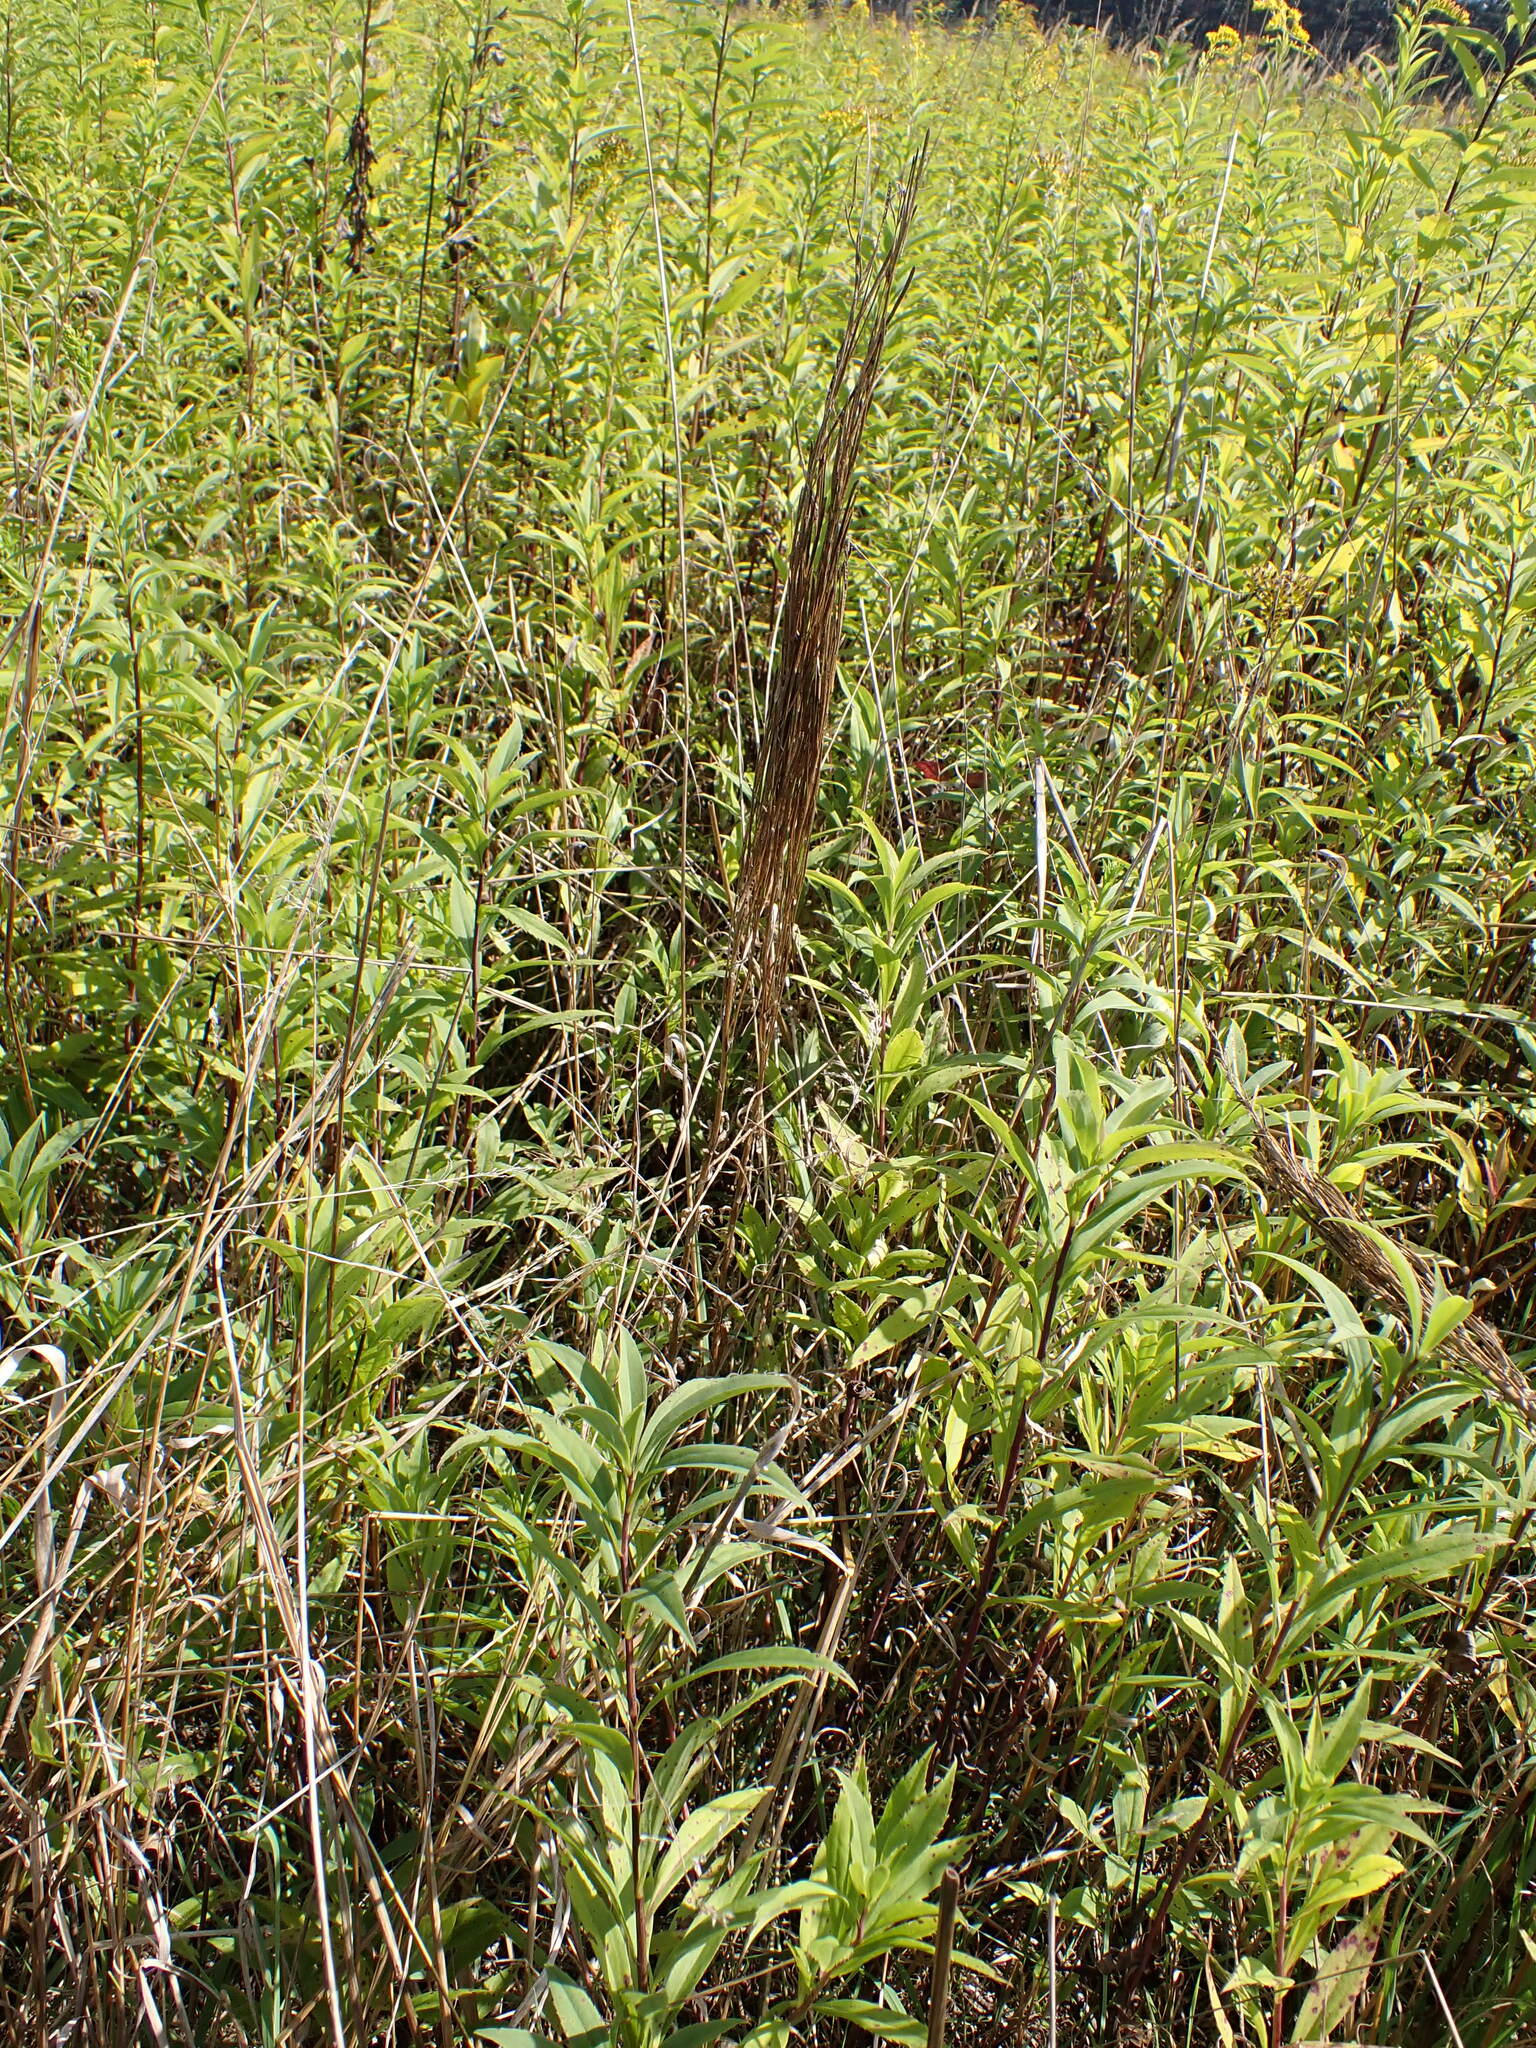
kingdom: Plantae
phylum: Tracheophyta
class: Magnoliopsida
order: Brassicales
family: Brassicaceae
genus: Arabis
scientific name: Arabis sagittata
